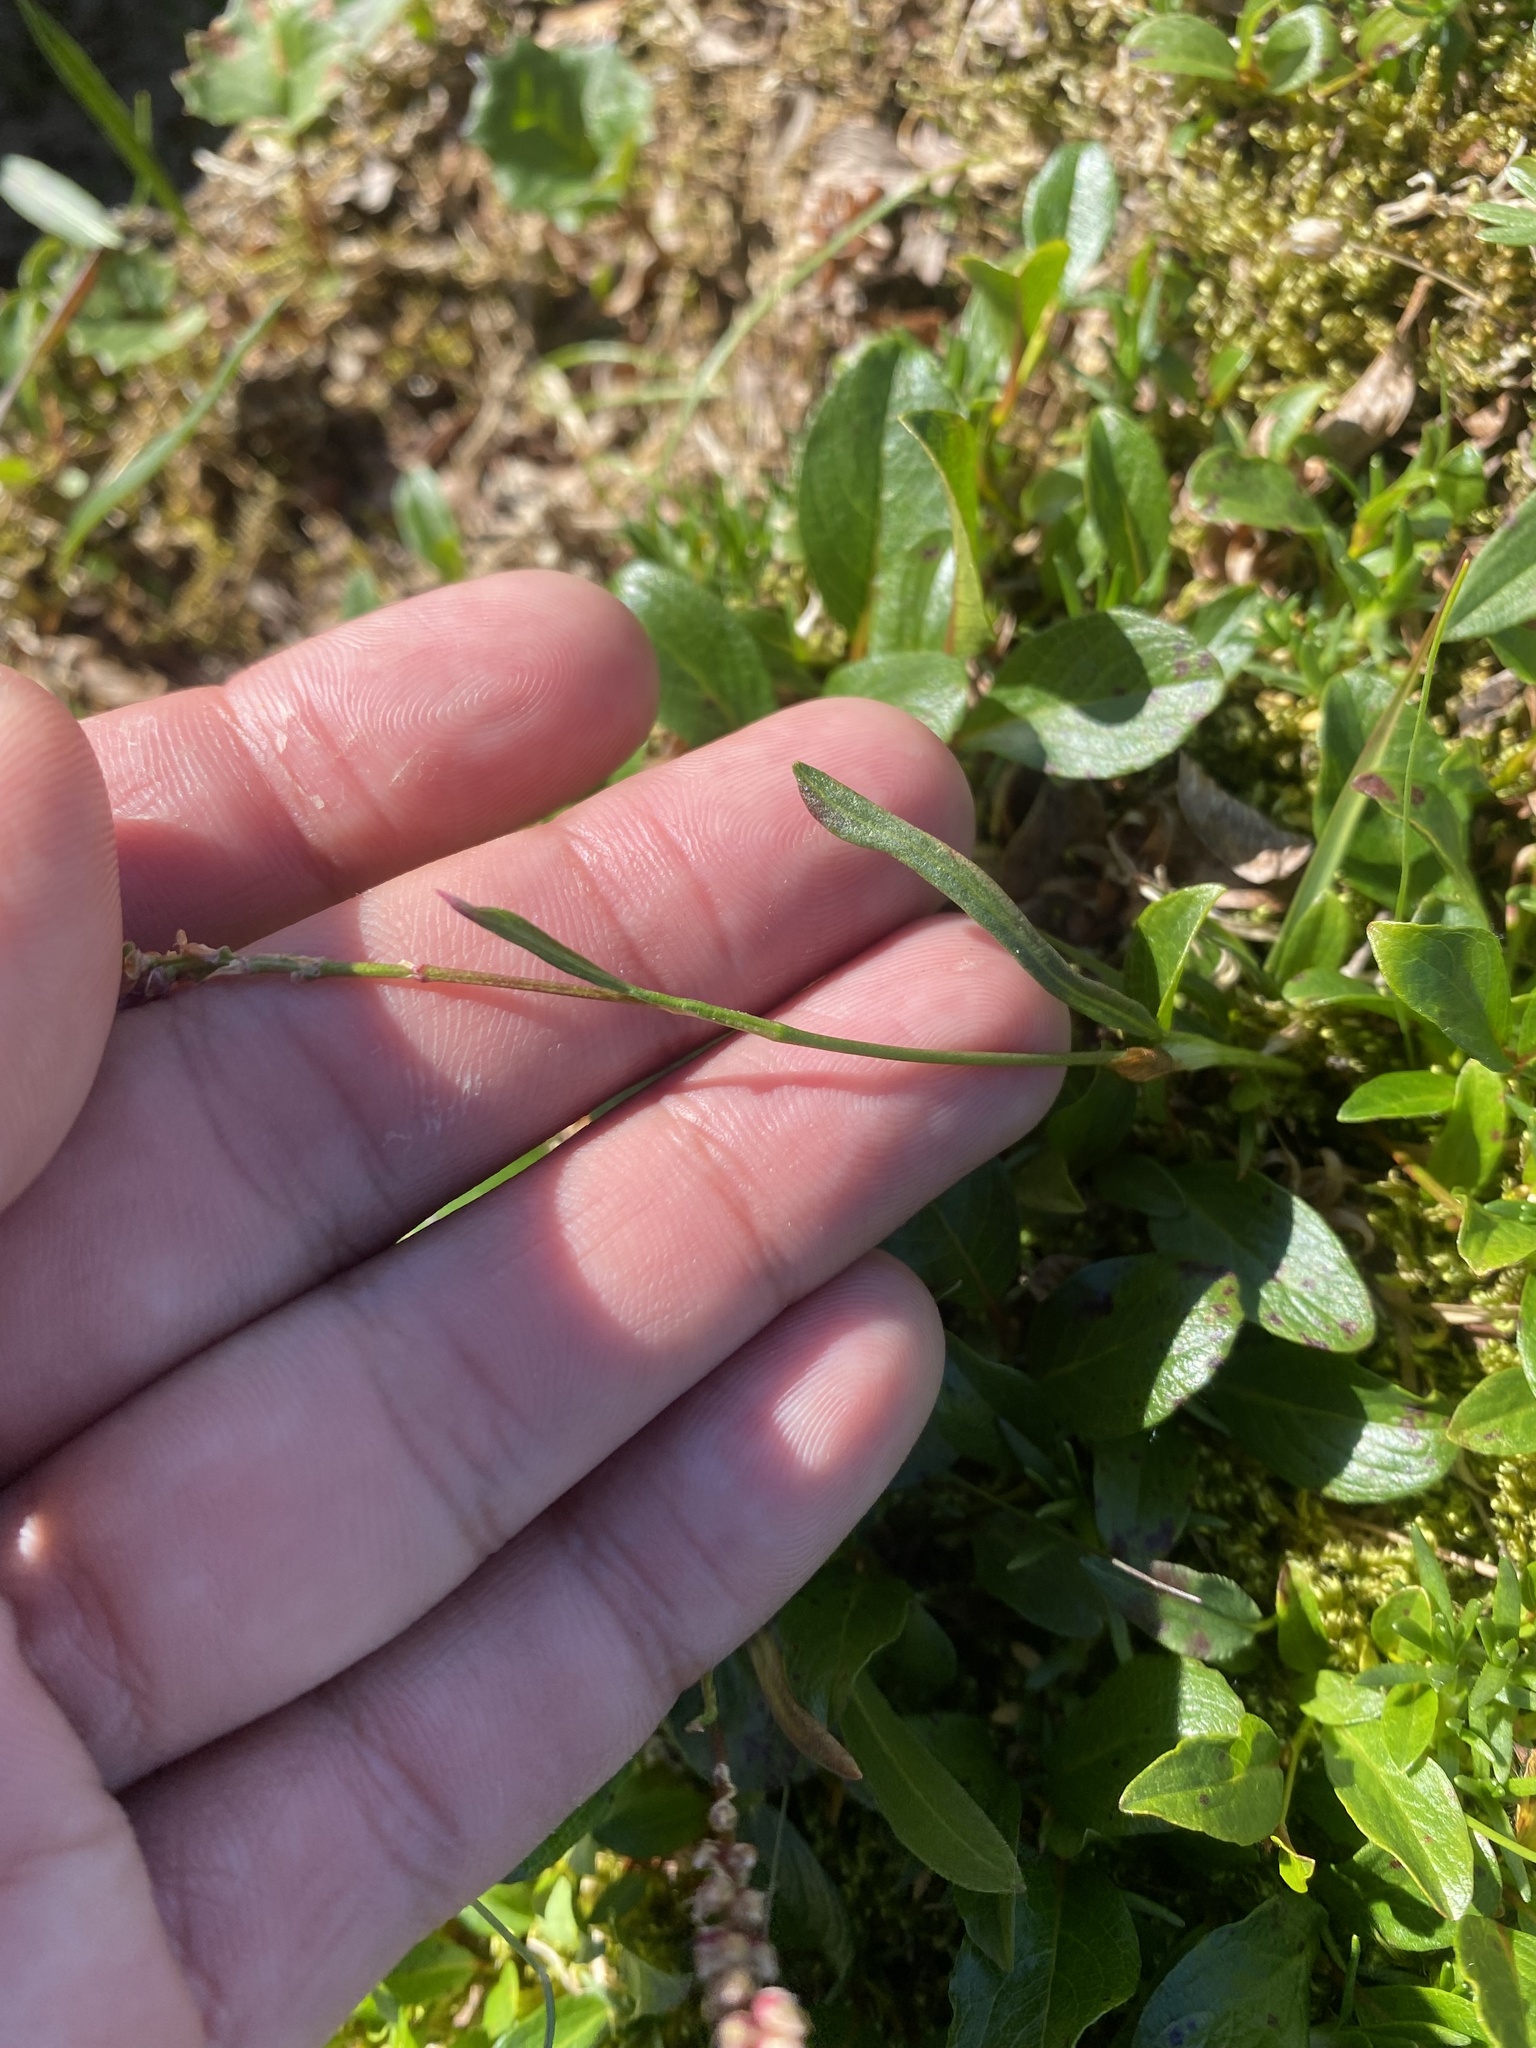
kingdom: Plantae
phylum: Tracheophyta
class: Magnoliopsida
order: Caryophyllales
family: Polygonaceae
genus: Bistorta
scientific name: Bistorta vivipara
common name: Alpine bistort
